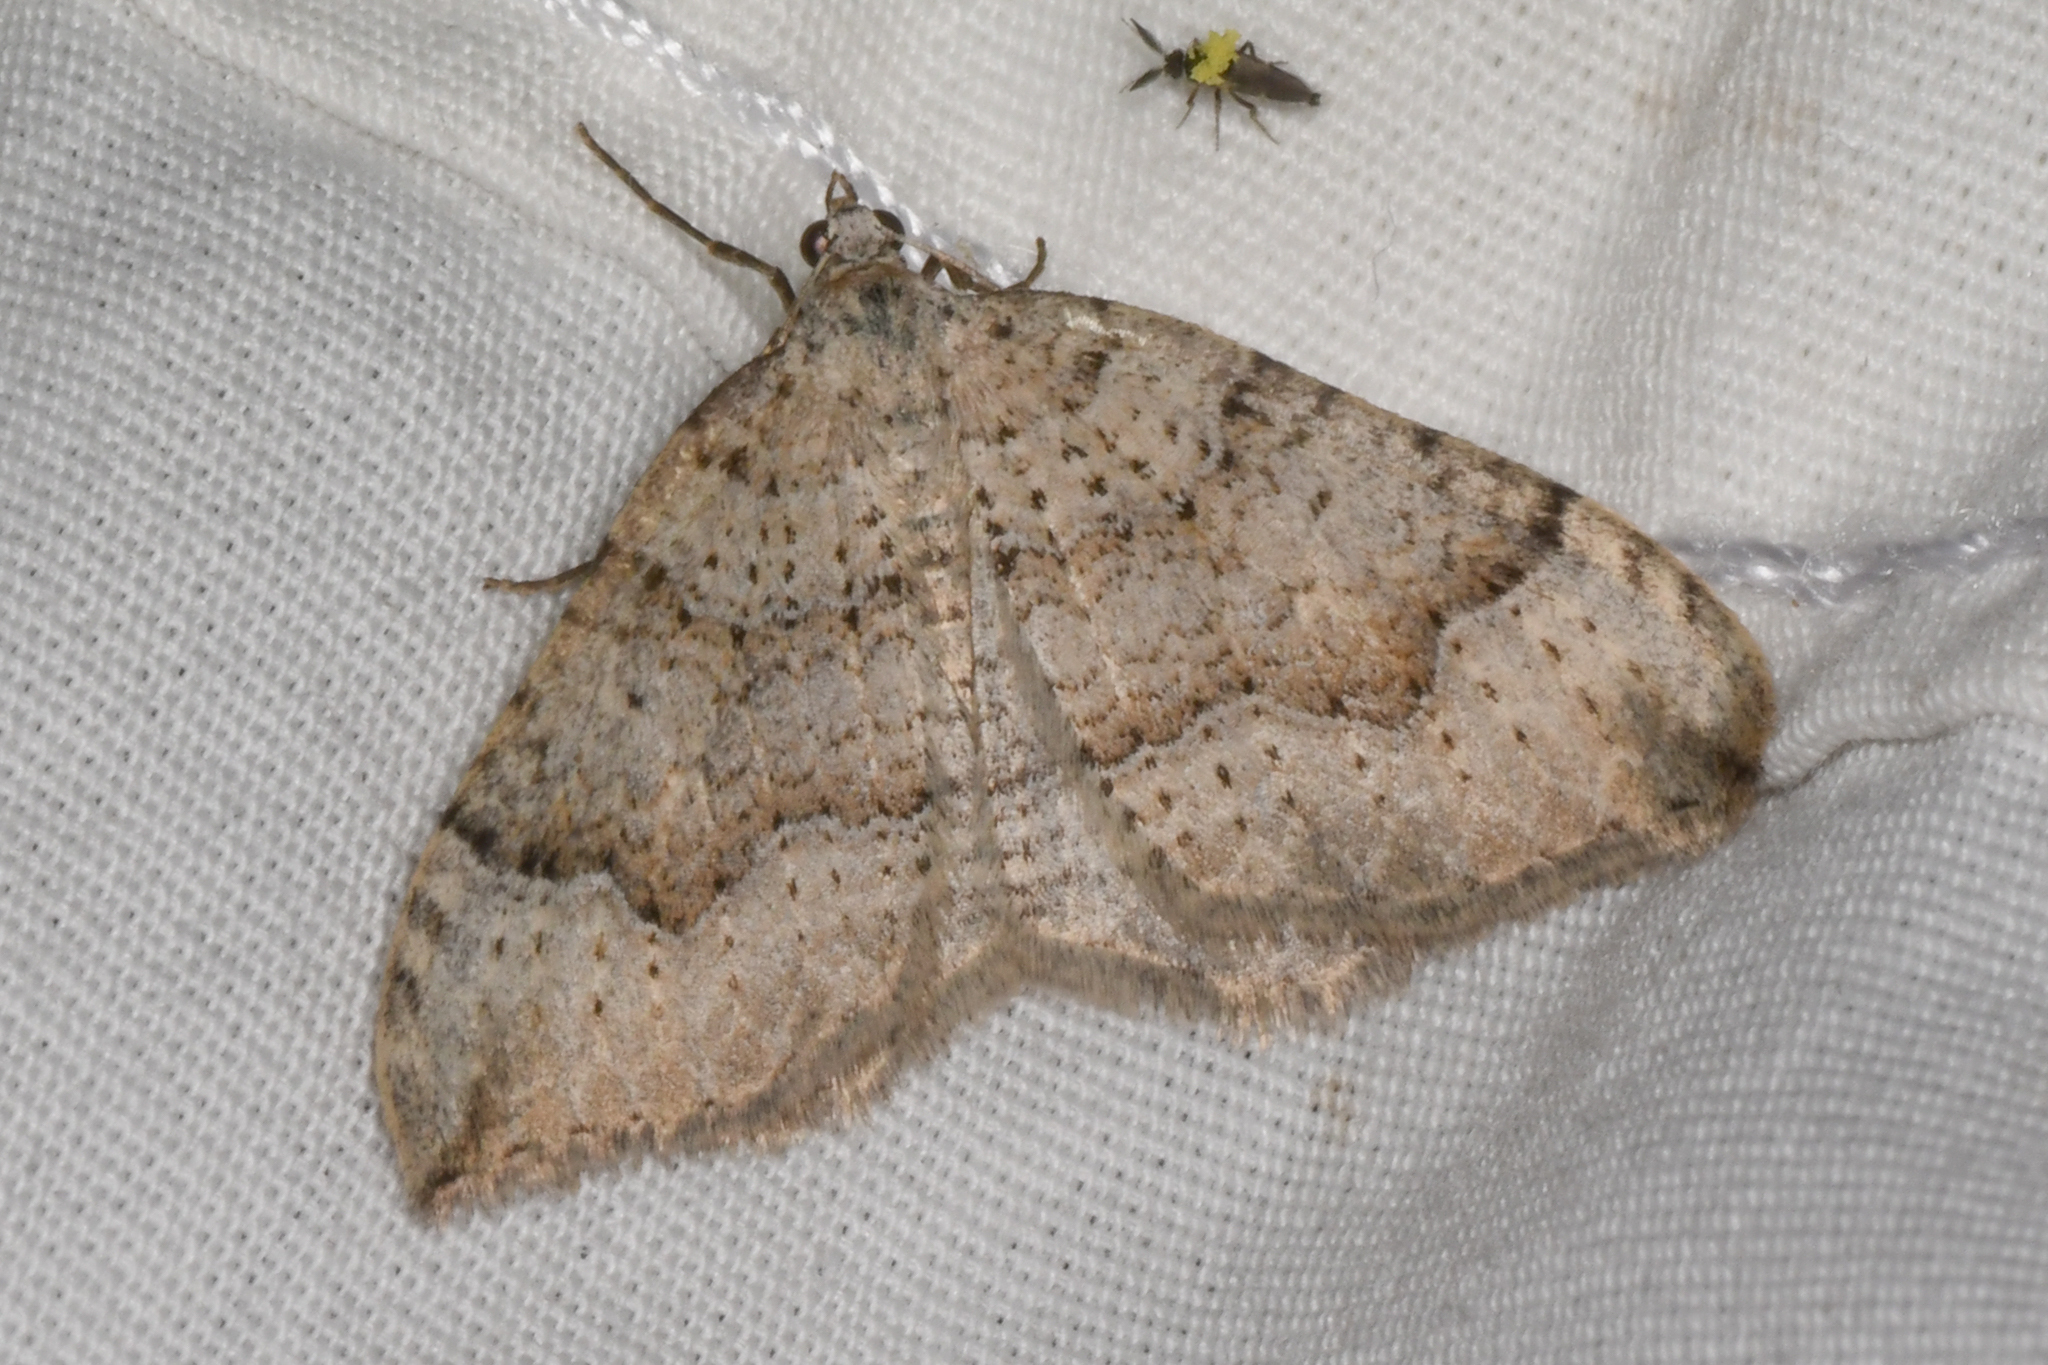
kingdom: Animalia
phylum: Arthropoda
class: Insecta
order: Lepidoptera
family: Geometridae
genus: Zenophleps
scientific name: Zenophleps lignicolorata
